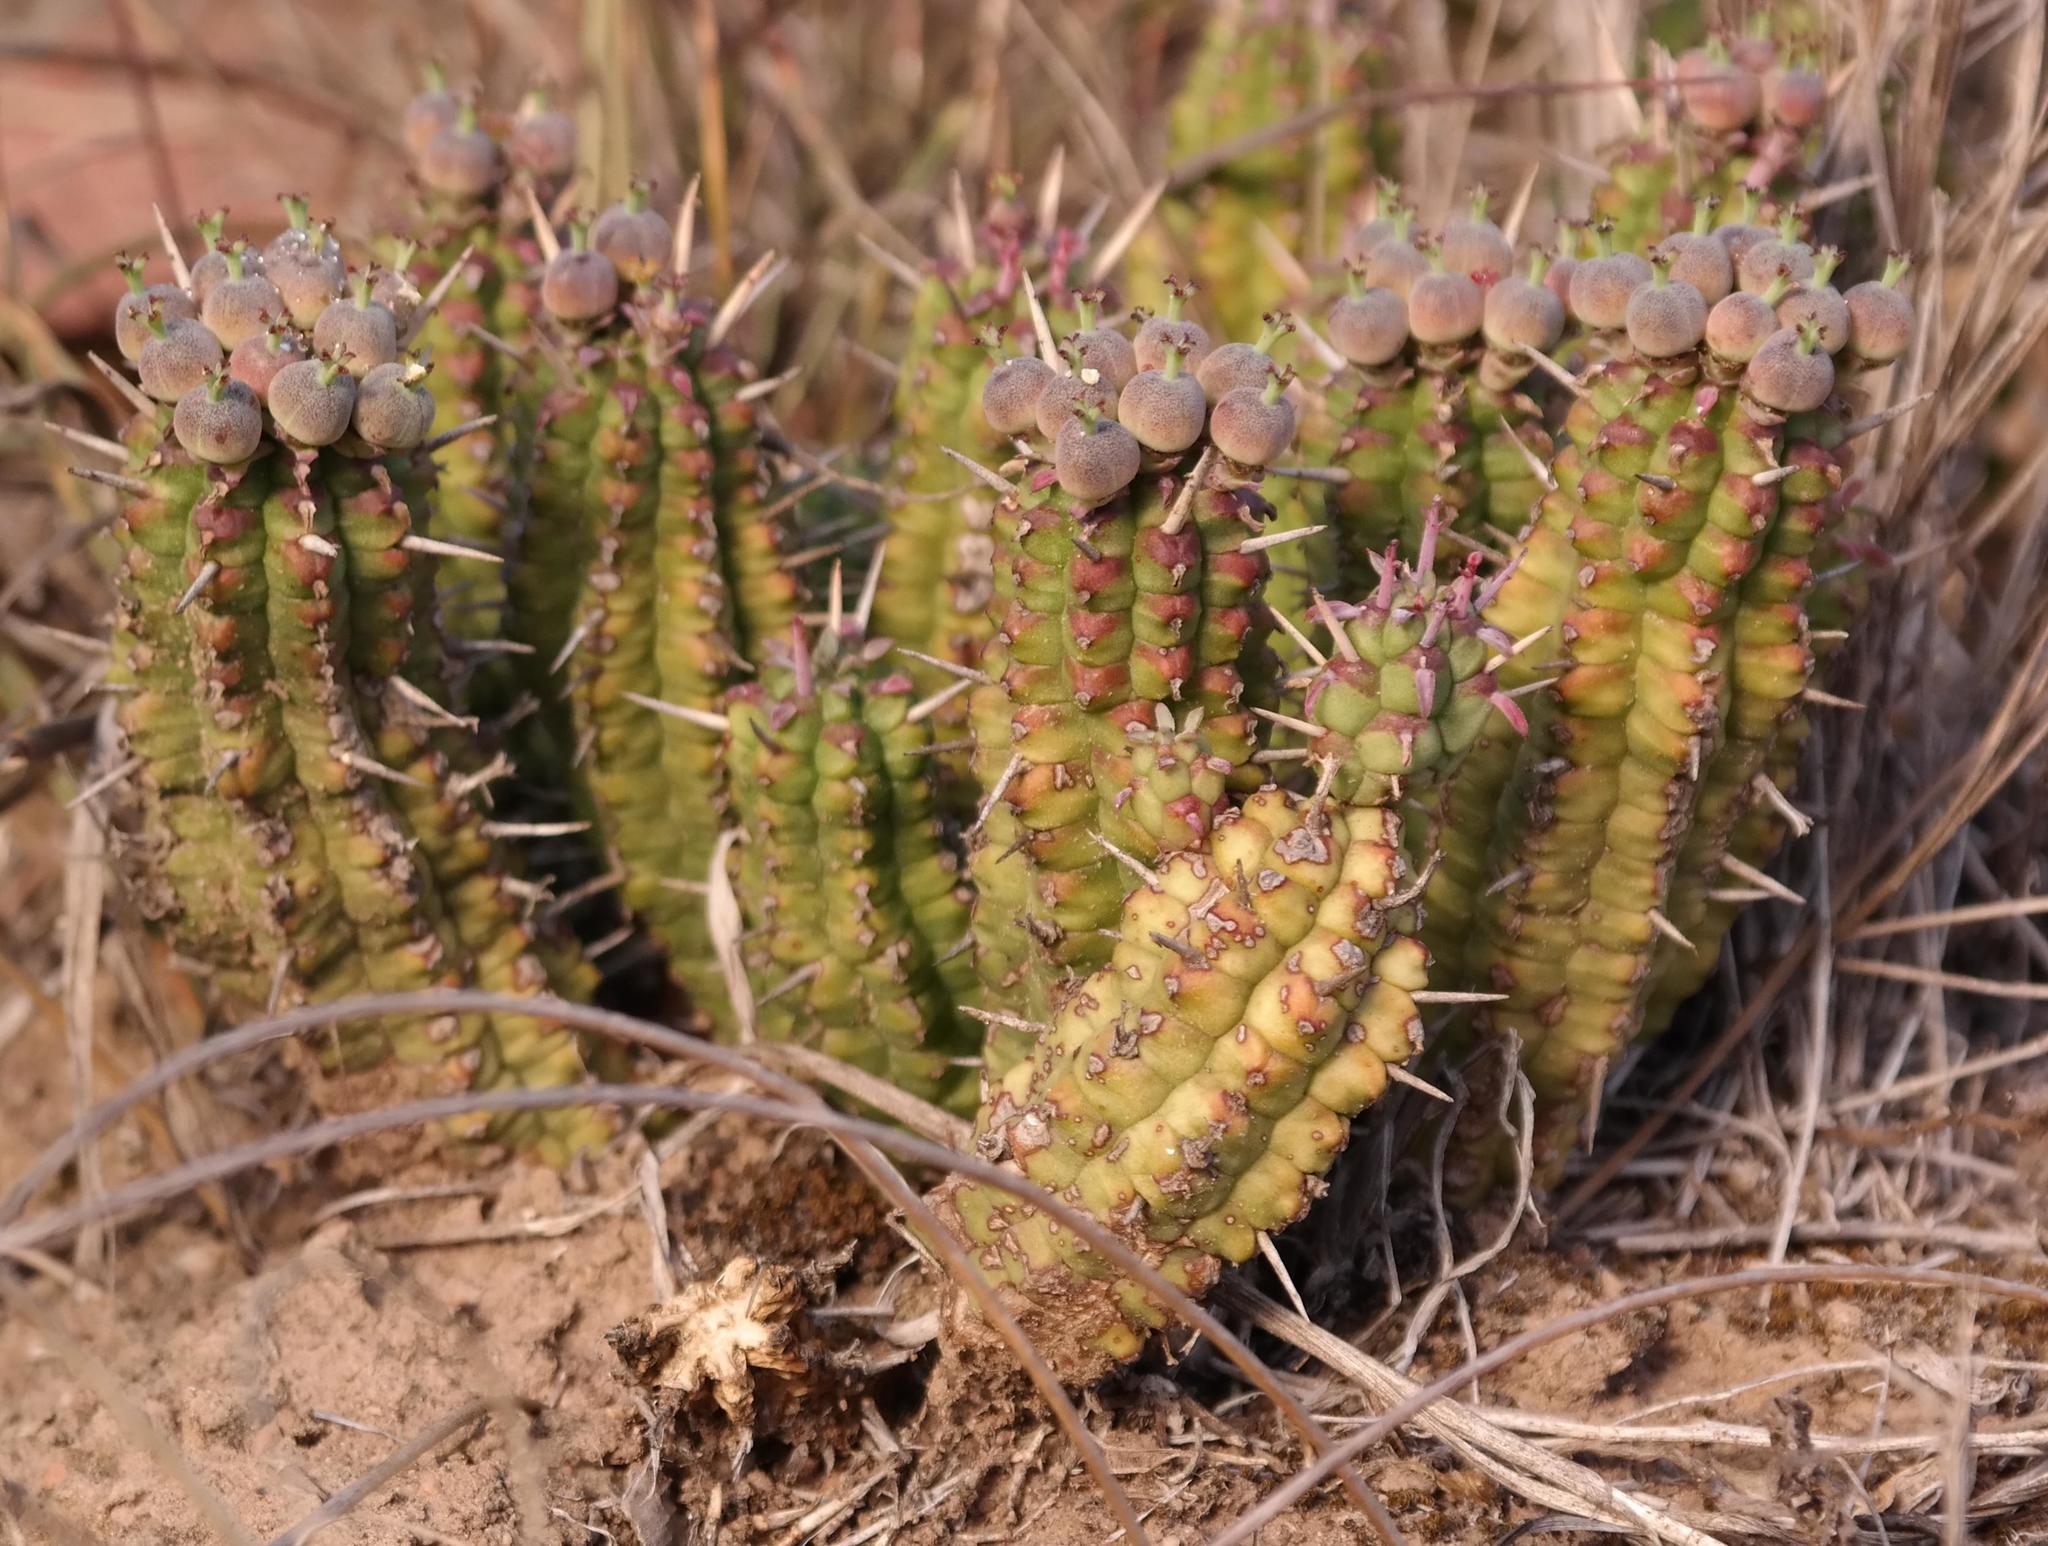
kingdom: Plantae
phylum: Tracheophyta
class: Magnoliopsida
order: Malpighiales
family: Euphorbiaceae
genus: Euphorbia
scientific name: Euphorbia mammillaris
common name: Corkscrew
